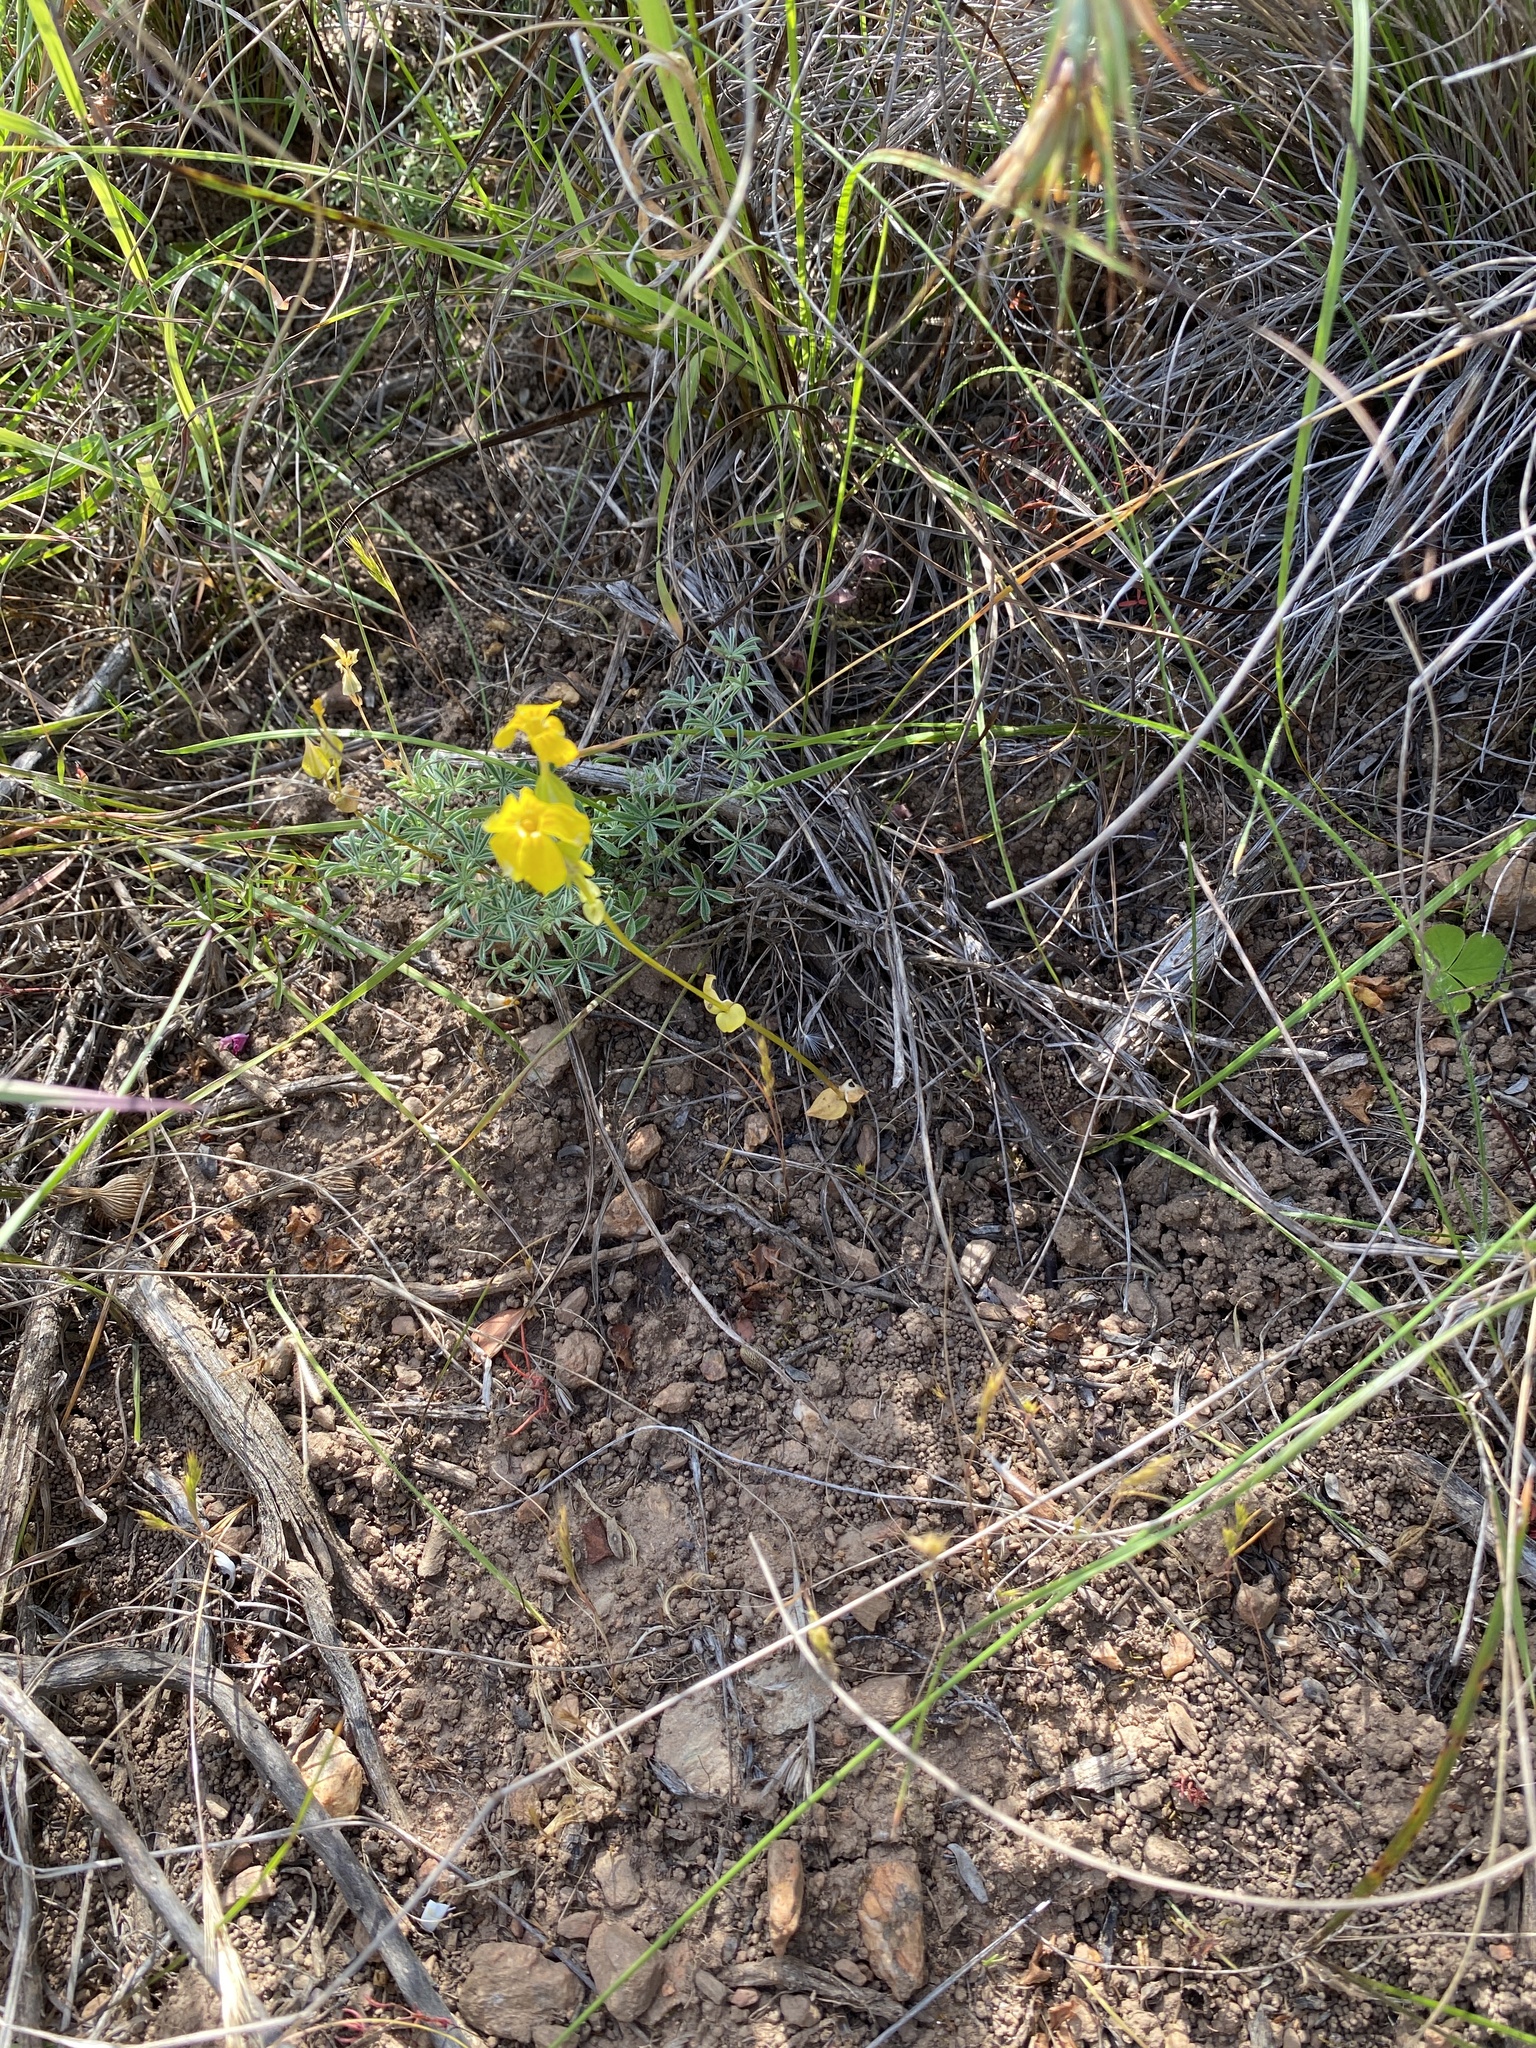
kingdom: Plantae
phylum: Tracheophyta
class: Magnoliopsida
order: Gentianales
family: Gentianaceae
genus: Sebaea
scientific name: Sebaea exacoides
